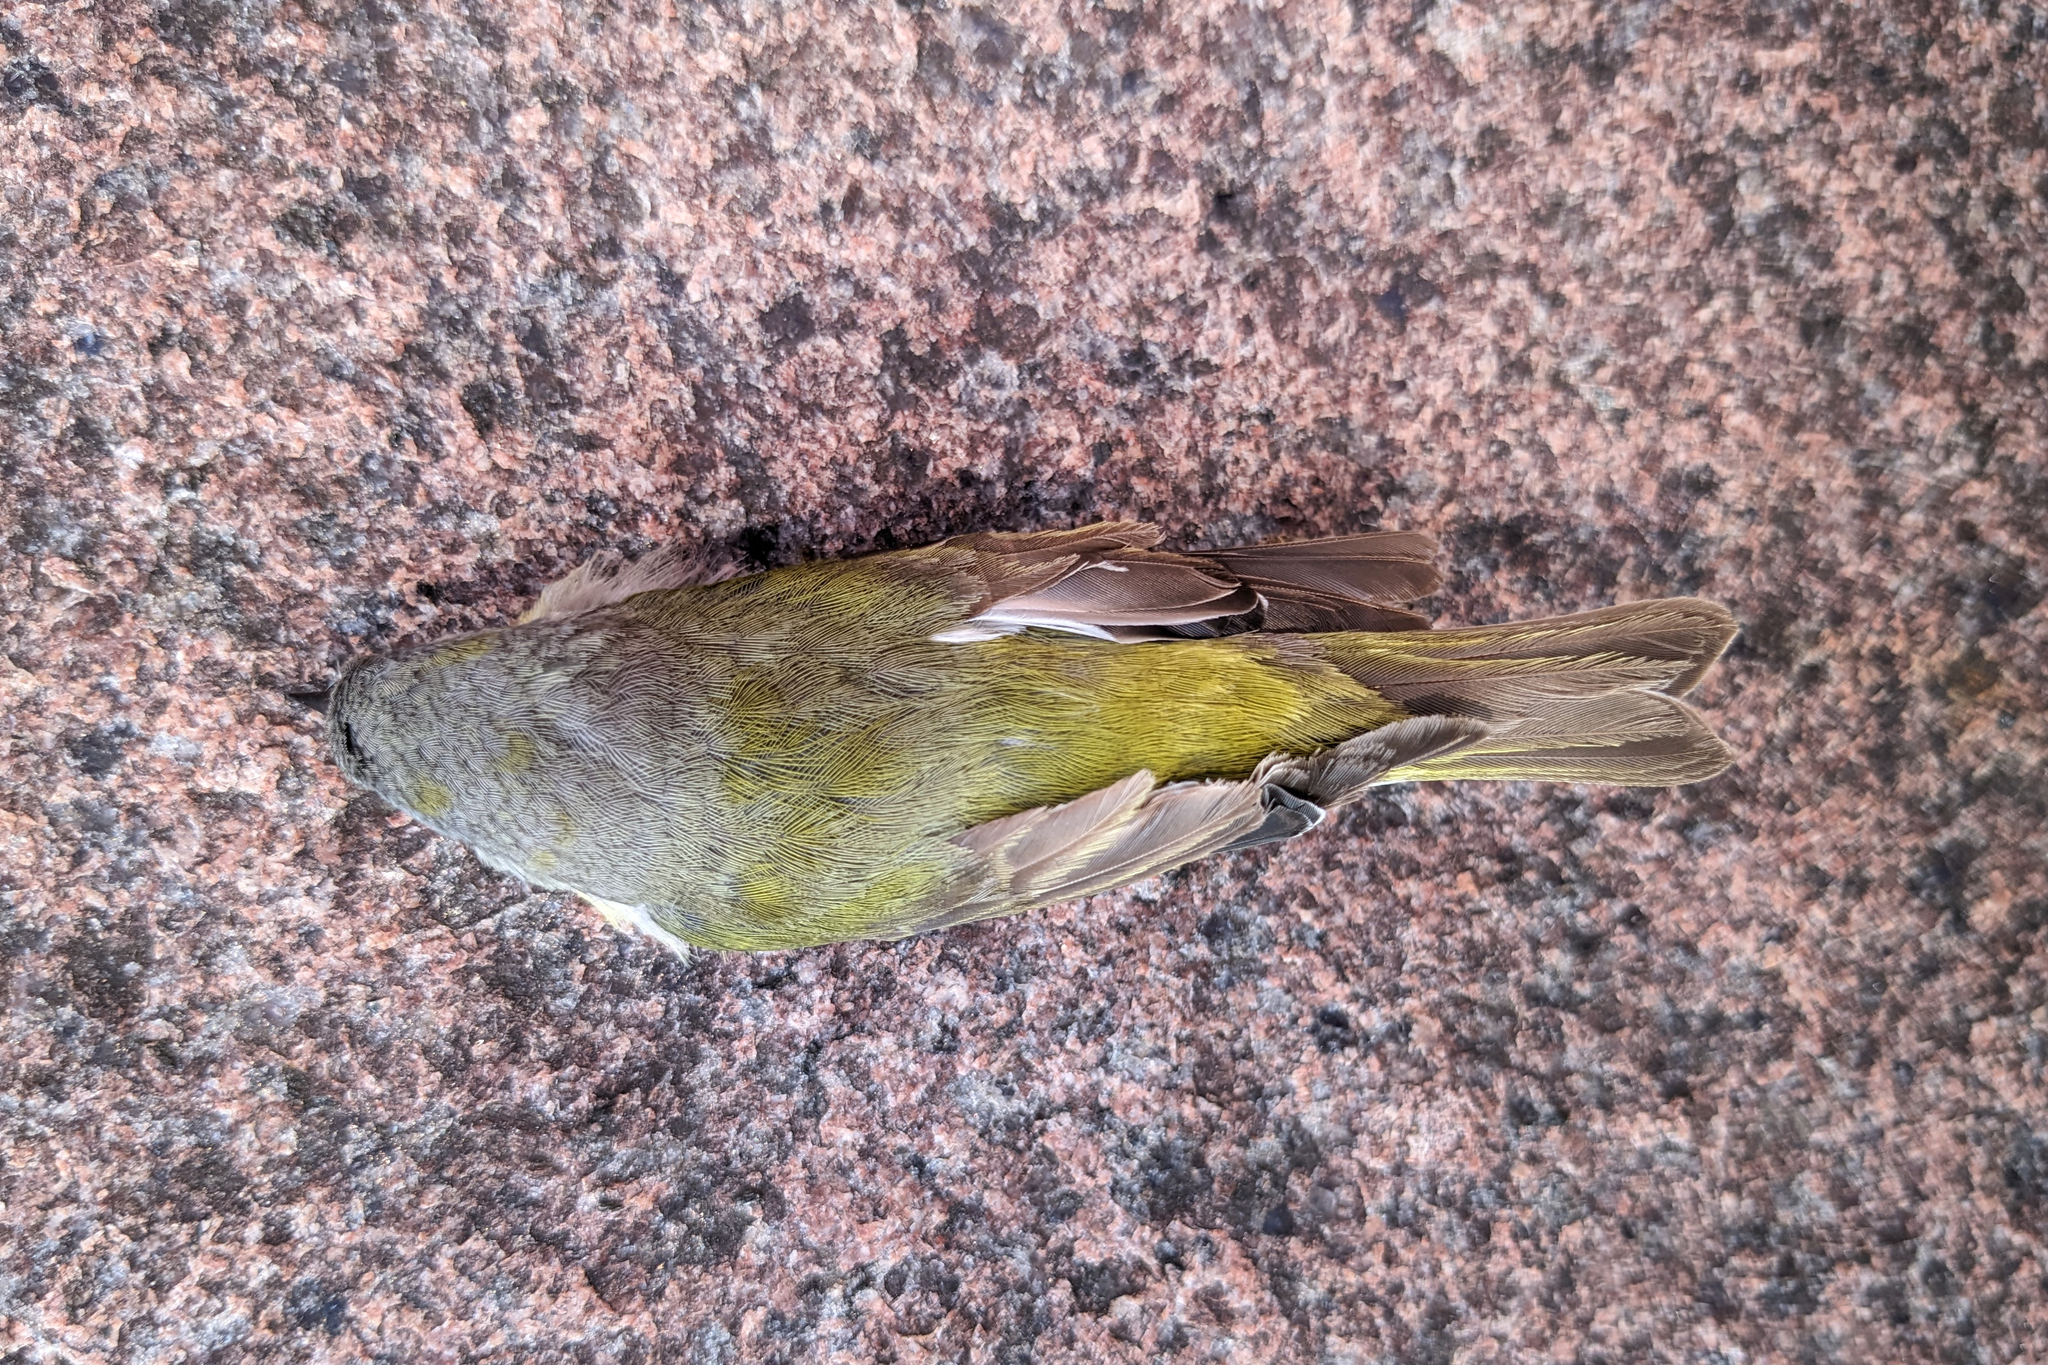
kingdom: Animalia
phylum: Chordata
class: Aves
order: Passeriformes
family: Parulidae
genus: Leiothlypis
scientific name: Leiothlypis peregrina
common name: Tennessee warbler
